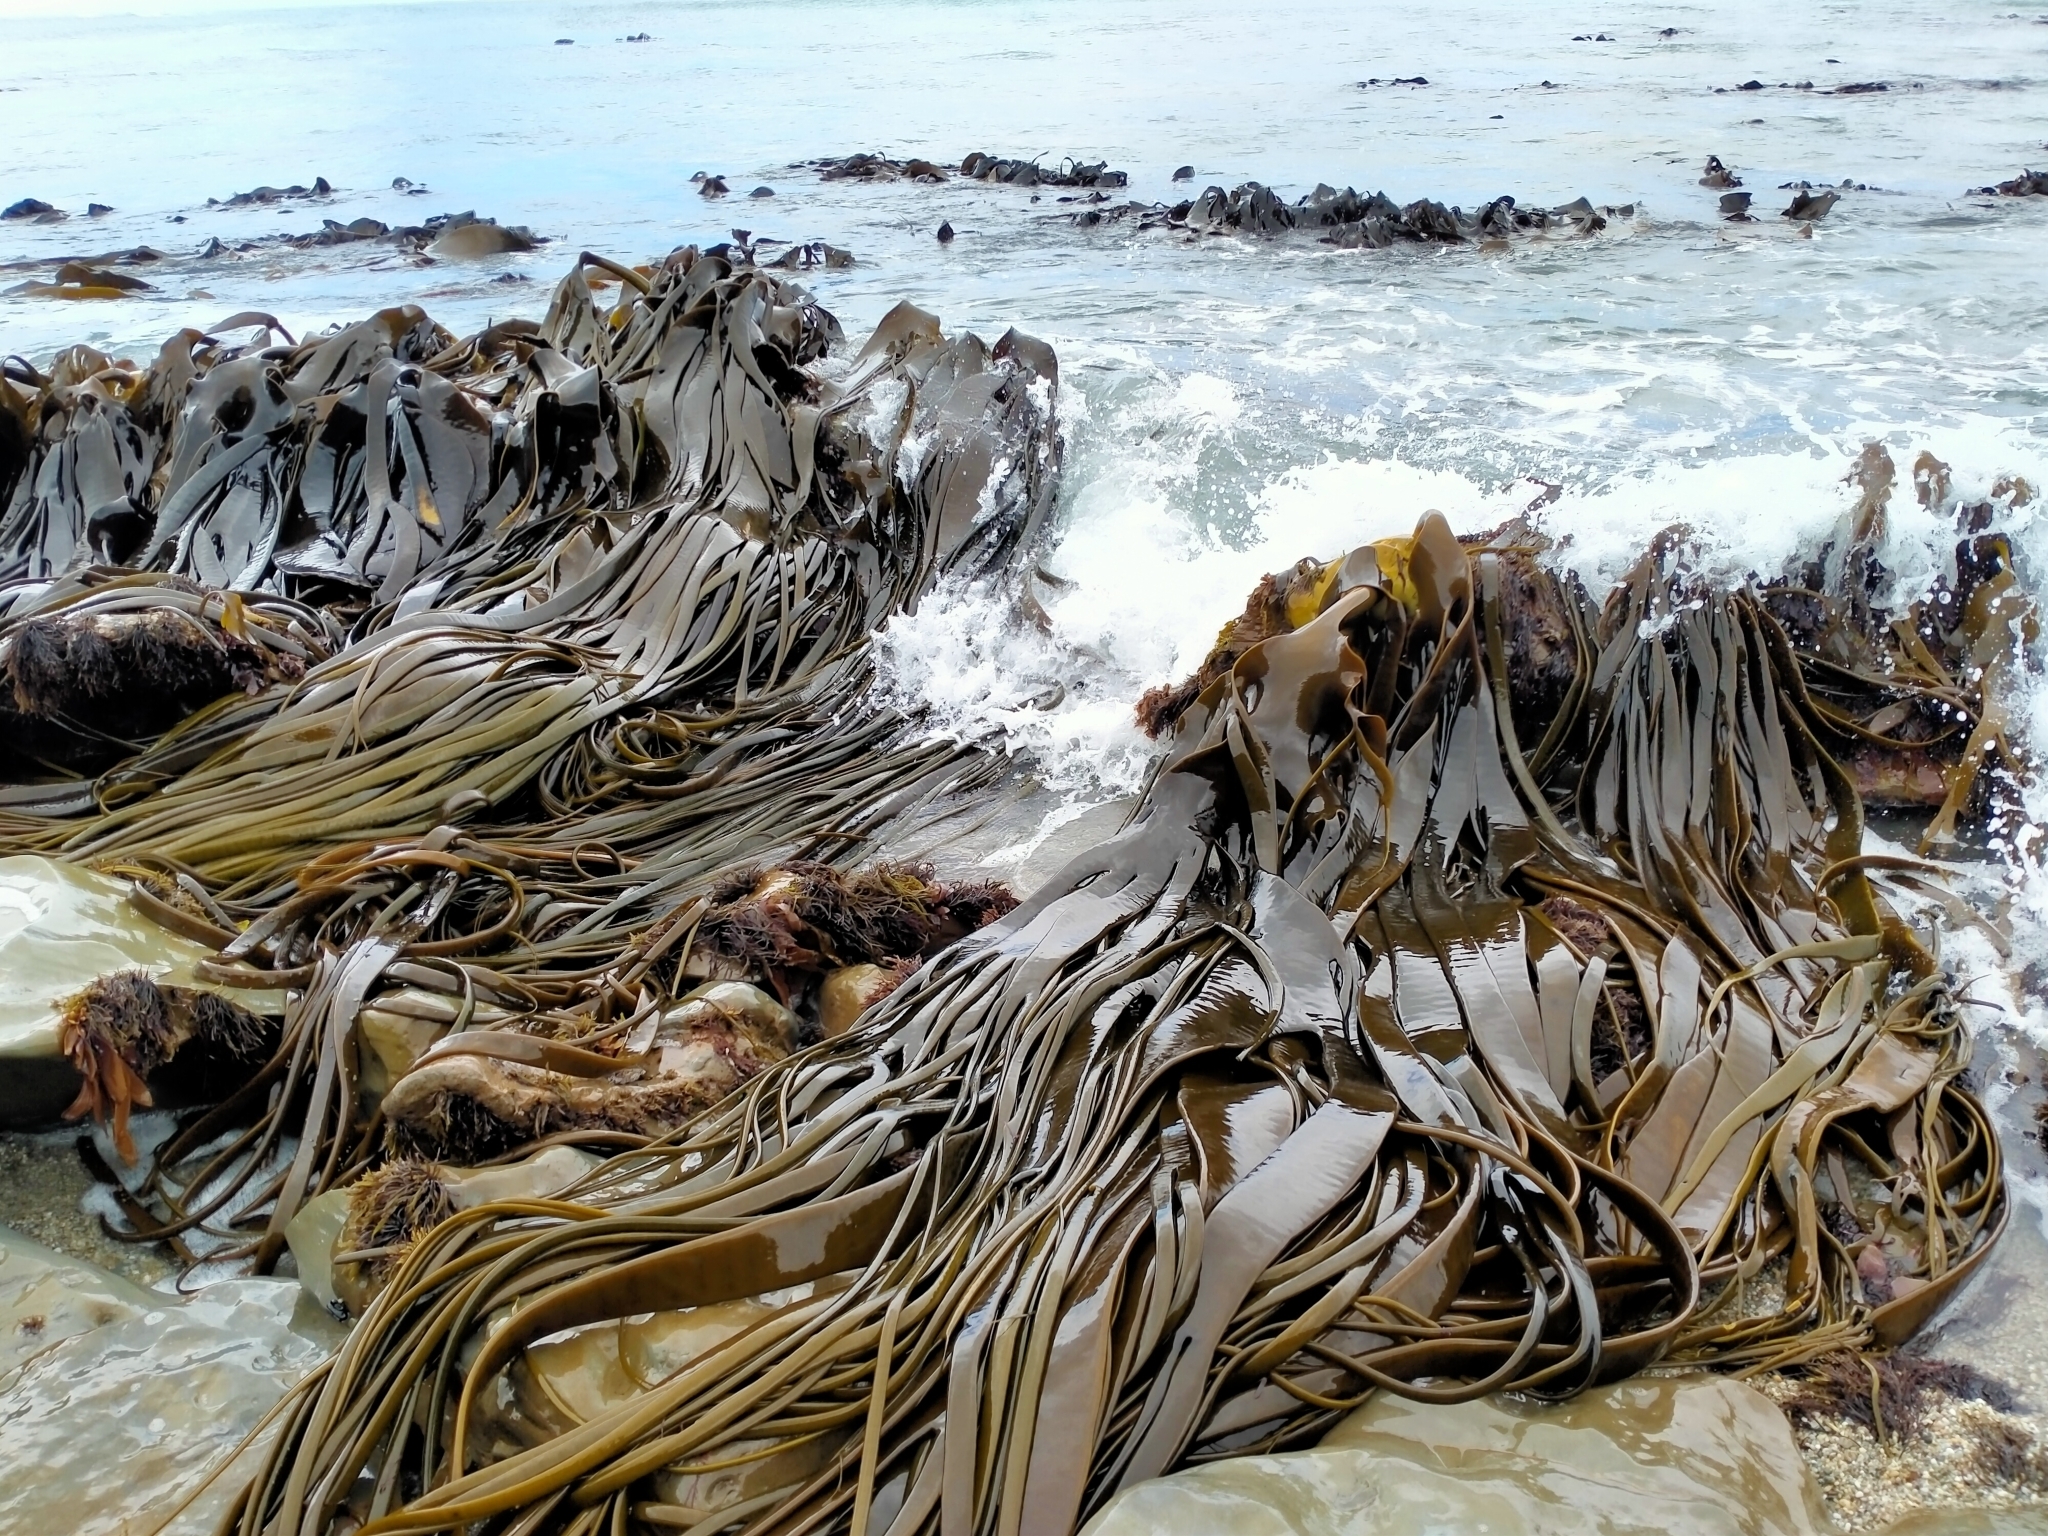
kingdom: Chromista
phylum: Ochrophyta
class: Phaeophyceae
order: Fucales
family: Durvillaeaceae
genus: Durvillaea
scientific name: Durvillaea antarctica
